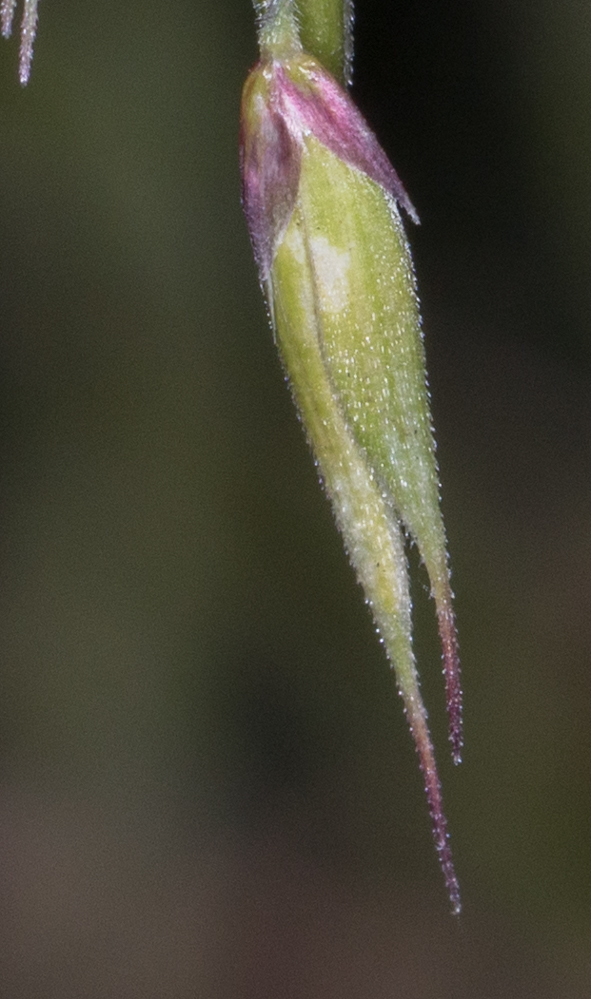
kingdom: Plantae
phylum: Tracheophyta
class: Liliopsida
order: Poales
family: Poaceae
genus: Ehrharta
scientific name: Ehrharta longiflora
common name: Longflowered veldtgrass
